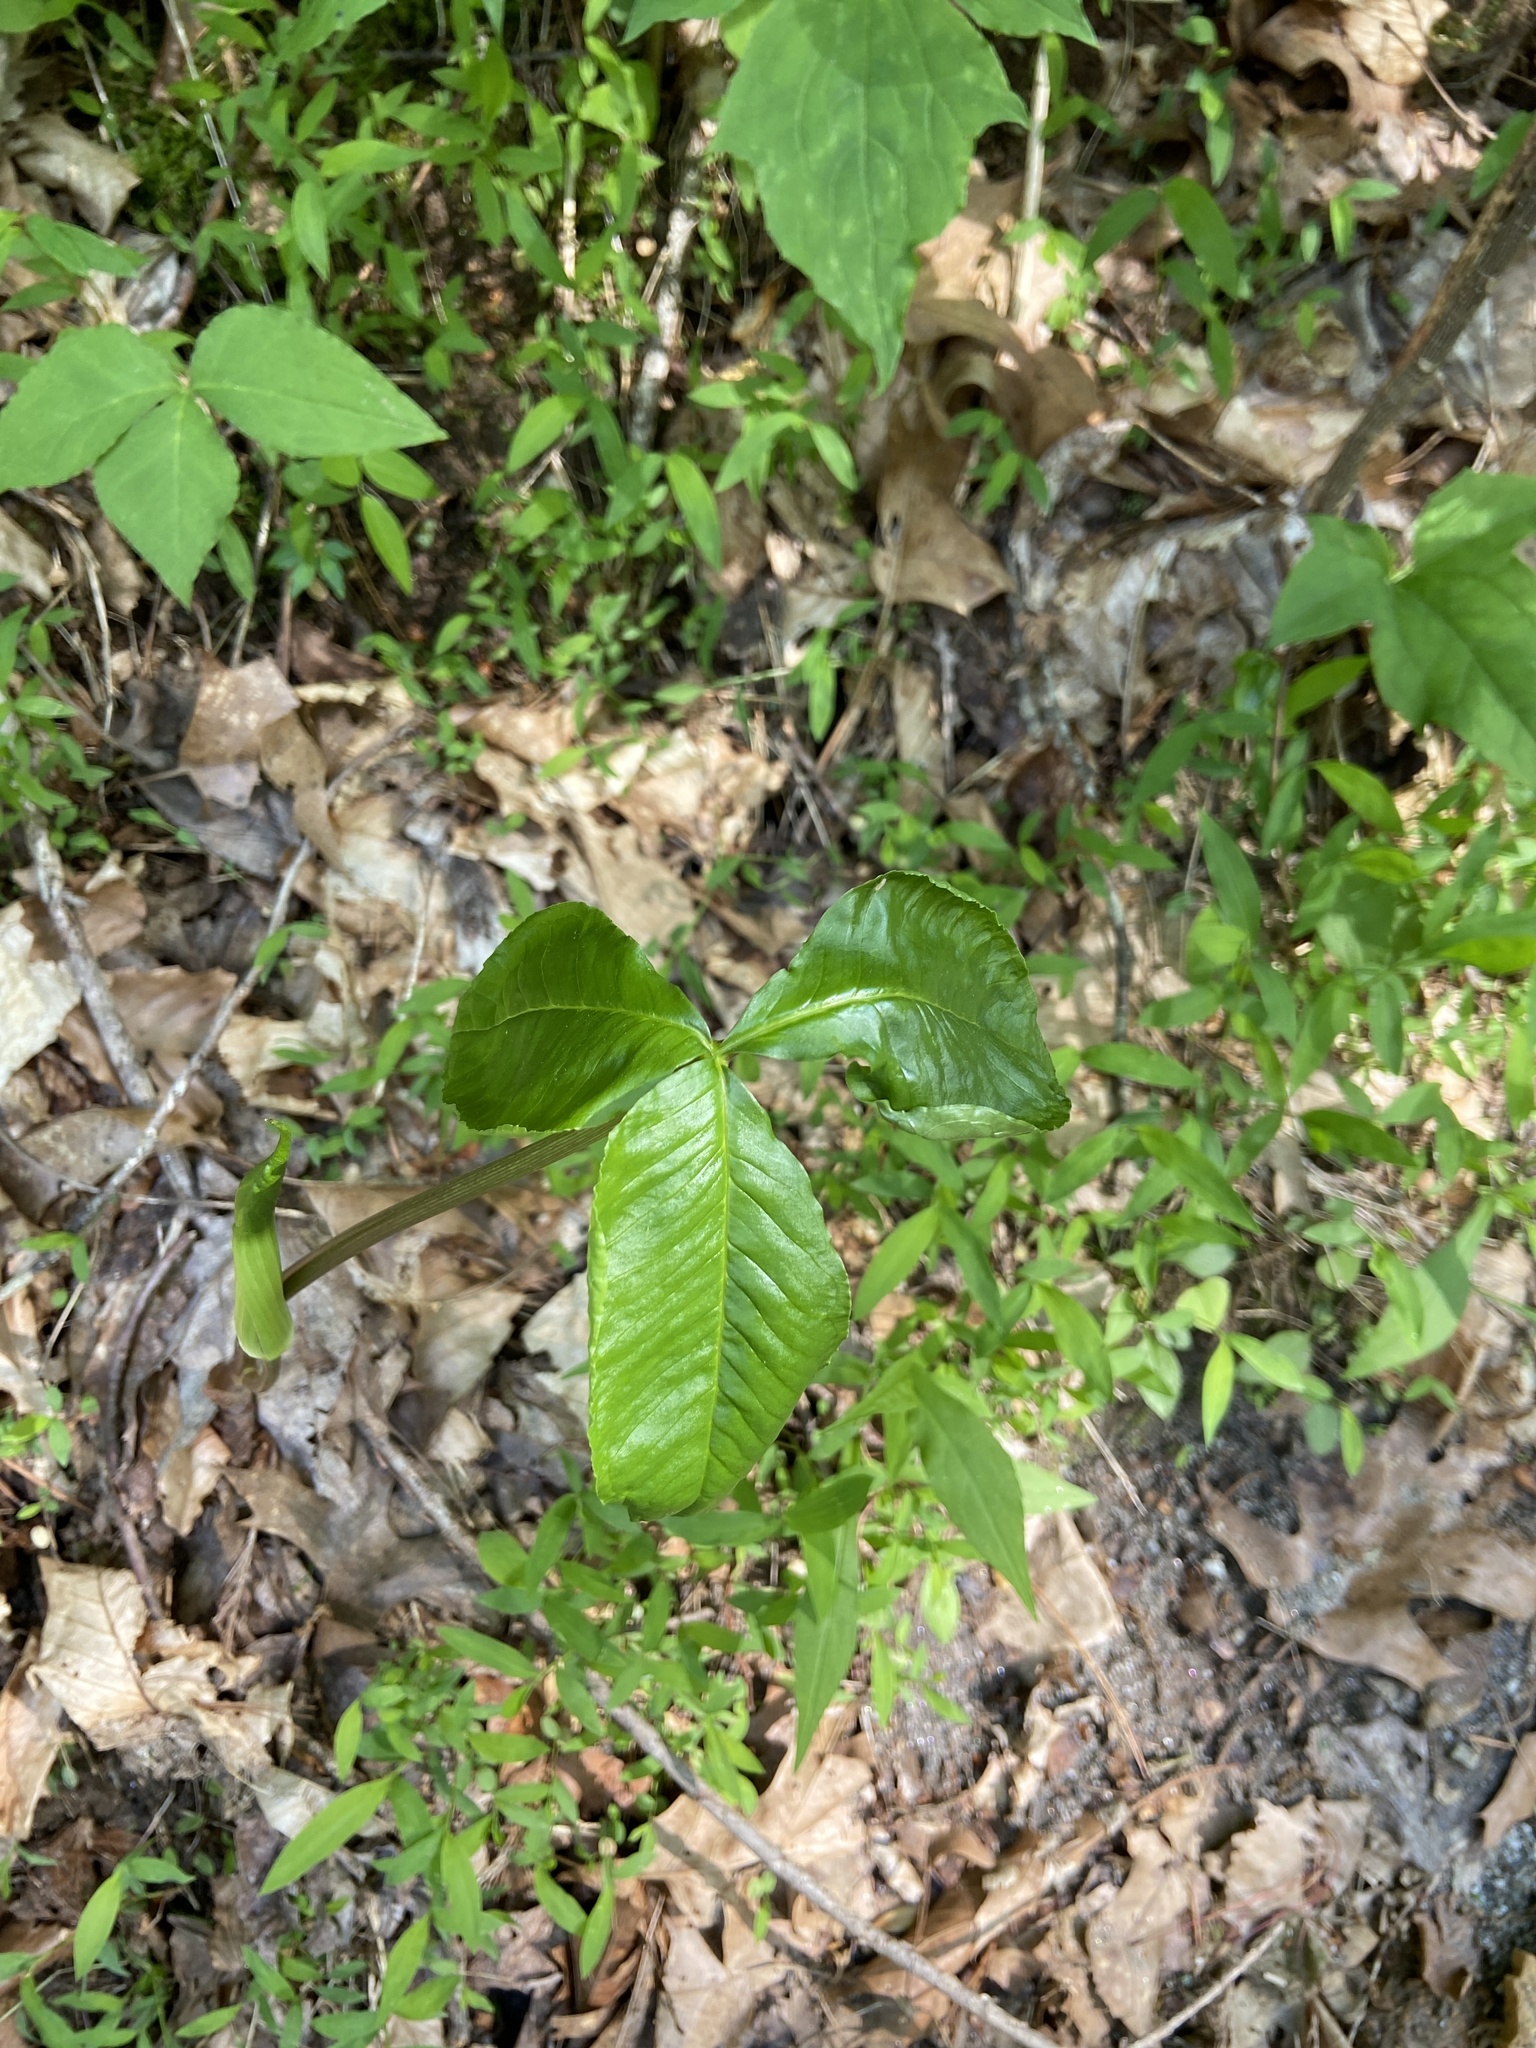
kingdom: Plantae
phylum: Tracheophyta
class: Liliopsida
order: Alismatales
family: Araceae
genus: Arisaema
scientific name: Arisaema triphyllum
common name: Jack-in-the-pulpit
